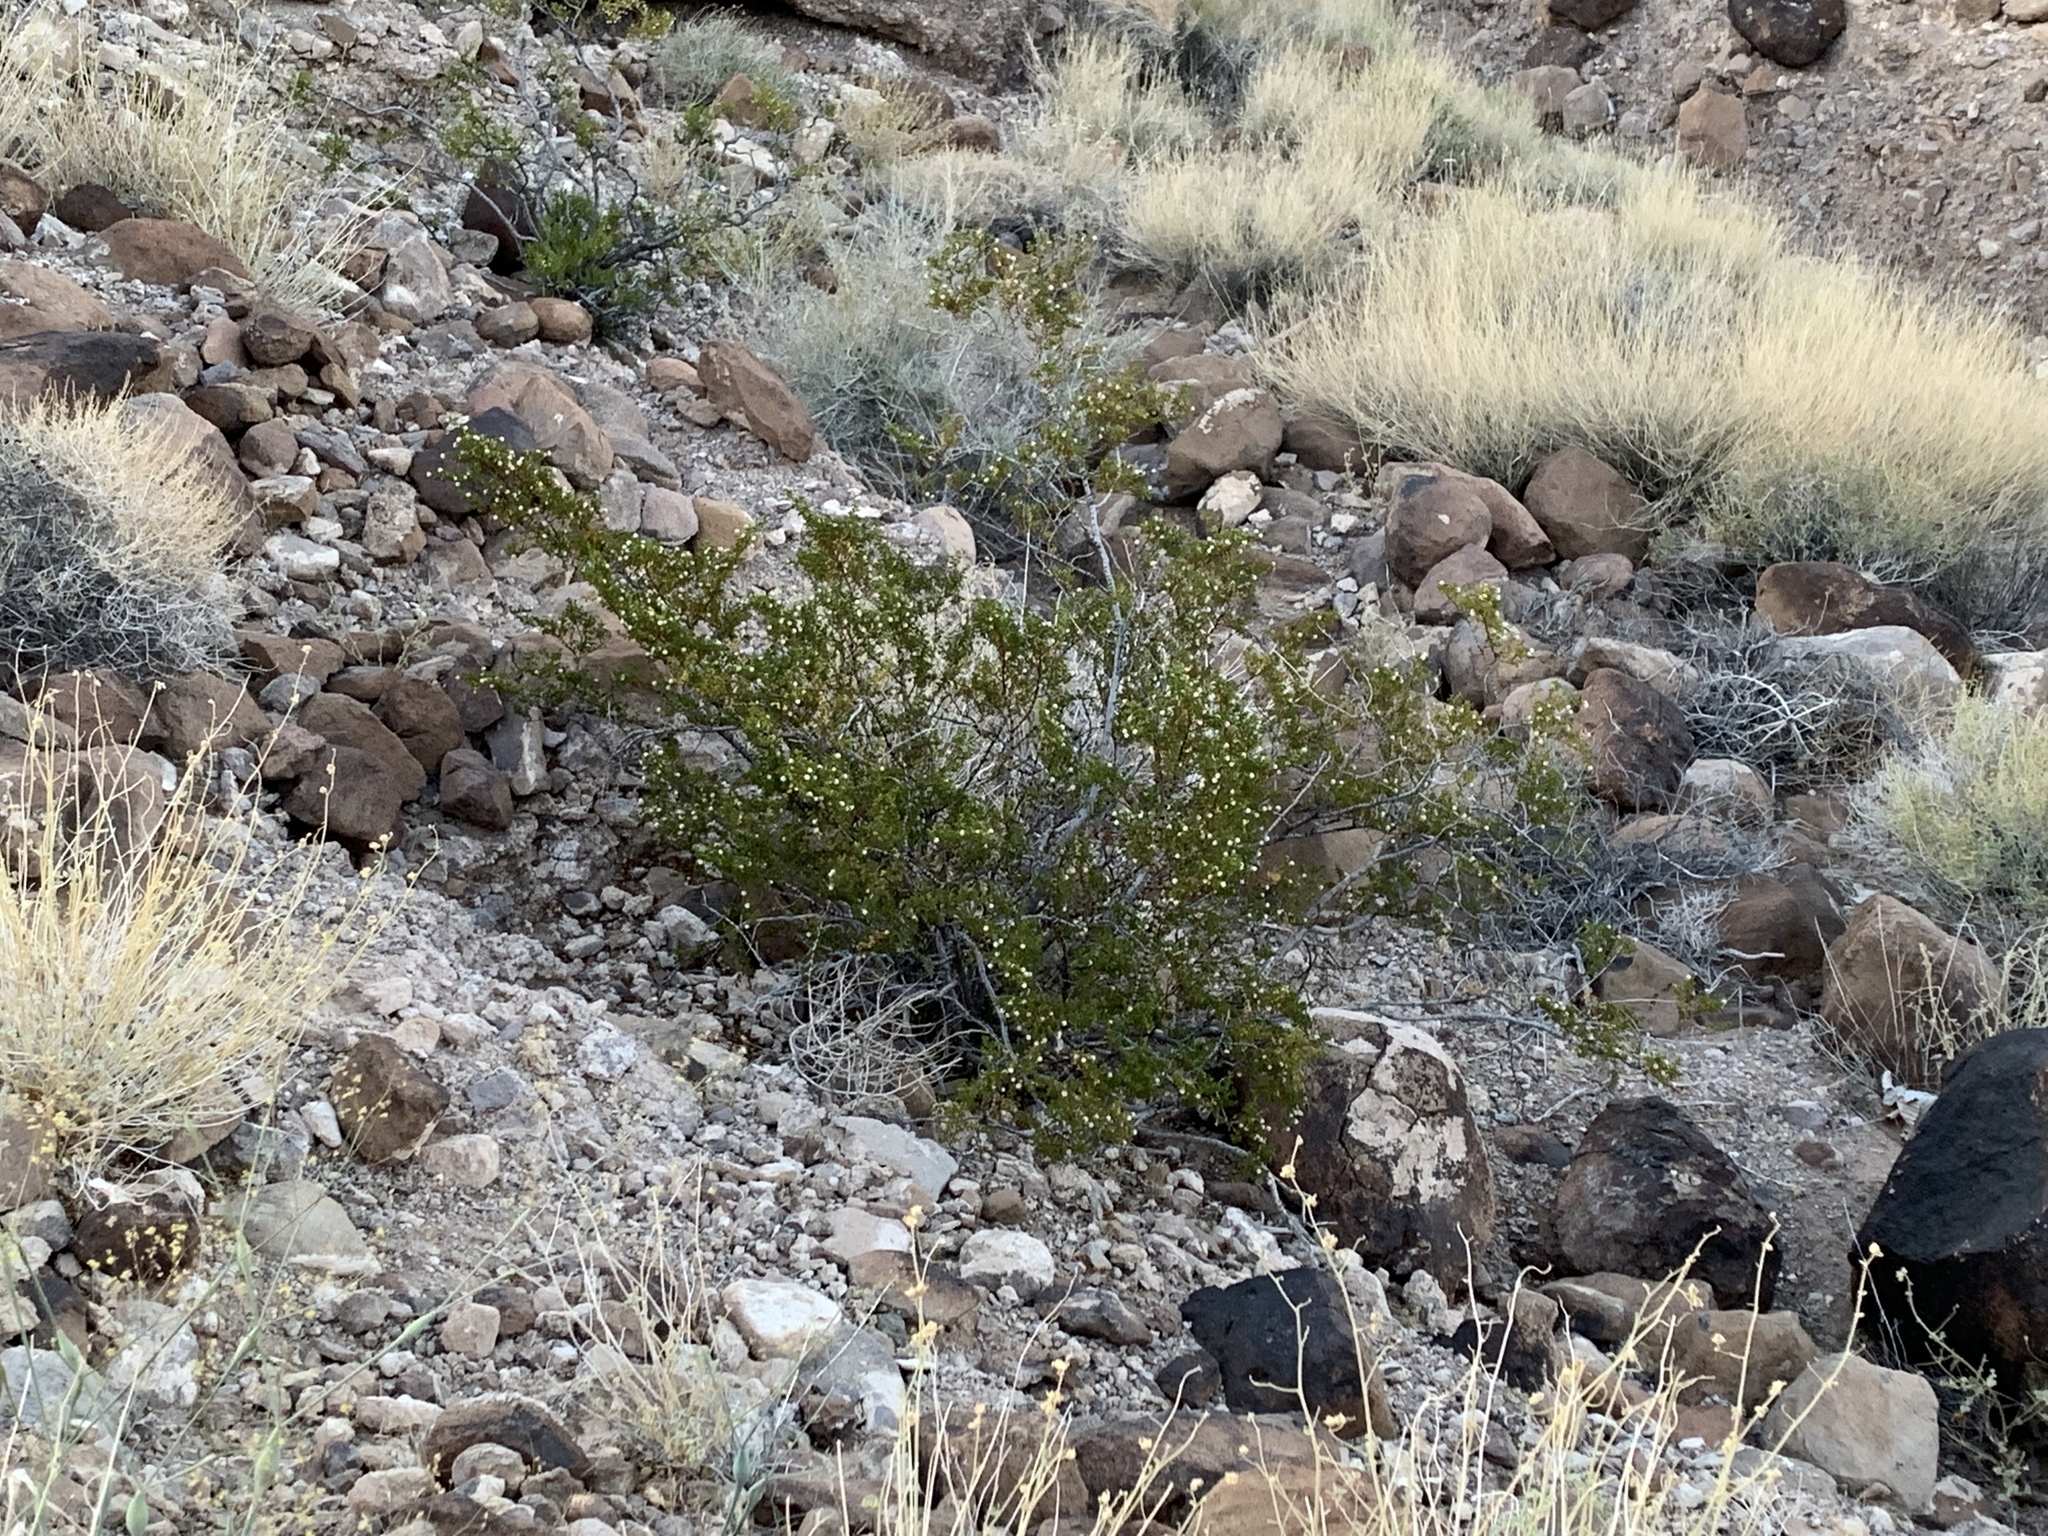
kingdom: Plantae
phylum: Tracheophyta
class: Magnoliopsida
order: Zygophyllales
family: Zygophyllaceae
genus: Larrea
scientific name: Larrea tridentata
